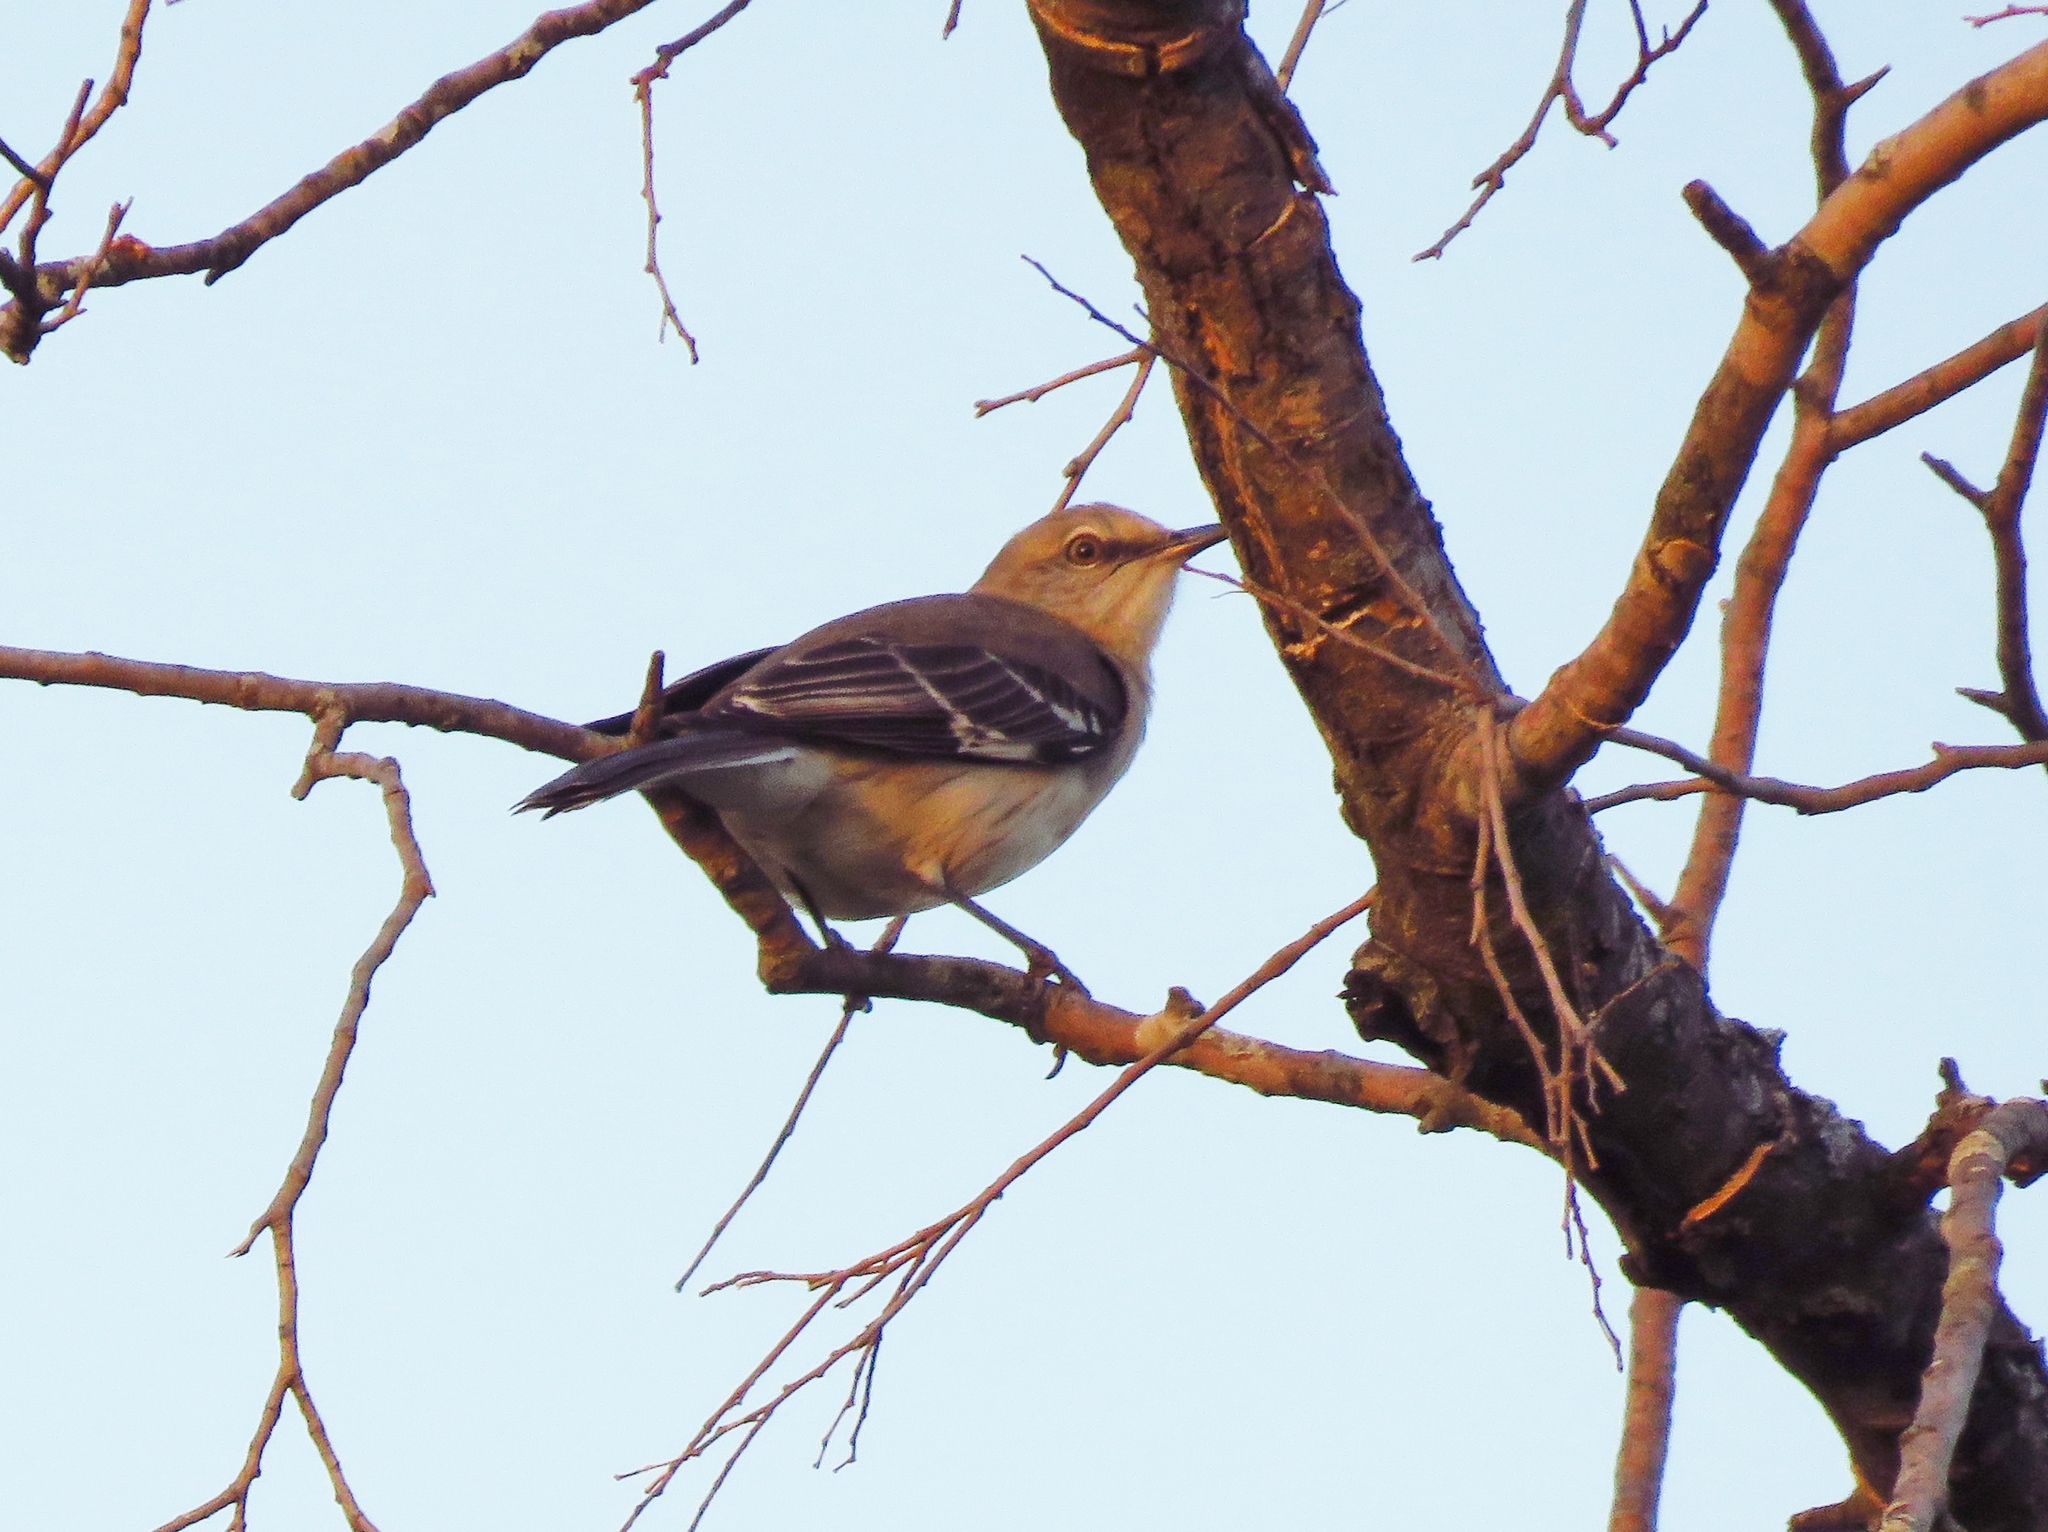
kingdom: Animalia
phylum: Chordata
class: Aves
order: Passeriformes
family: Mimidae
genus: Mimus
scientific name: Mimus polyglottos
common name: Northern mockingbird
